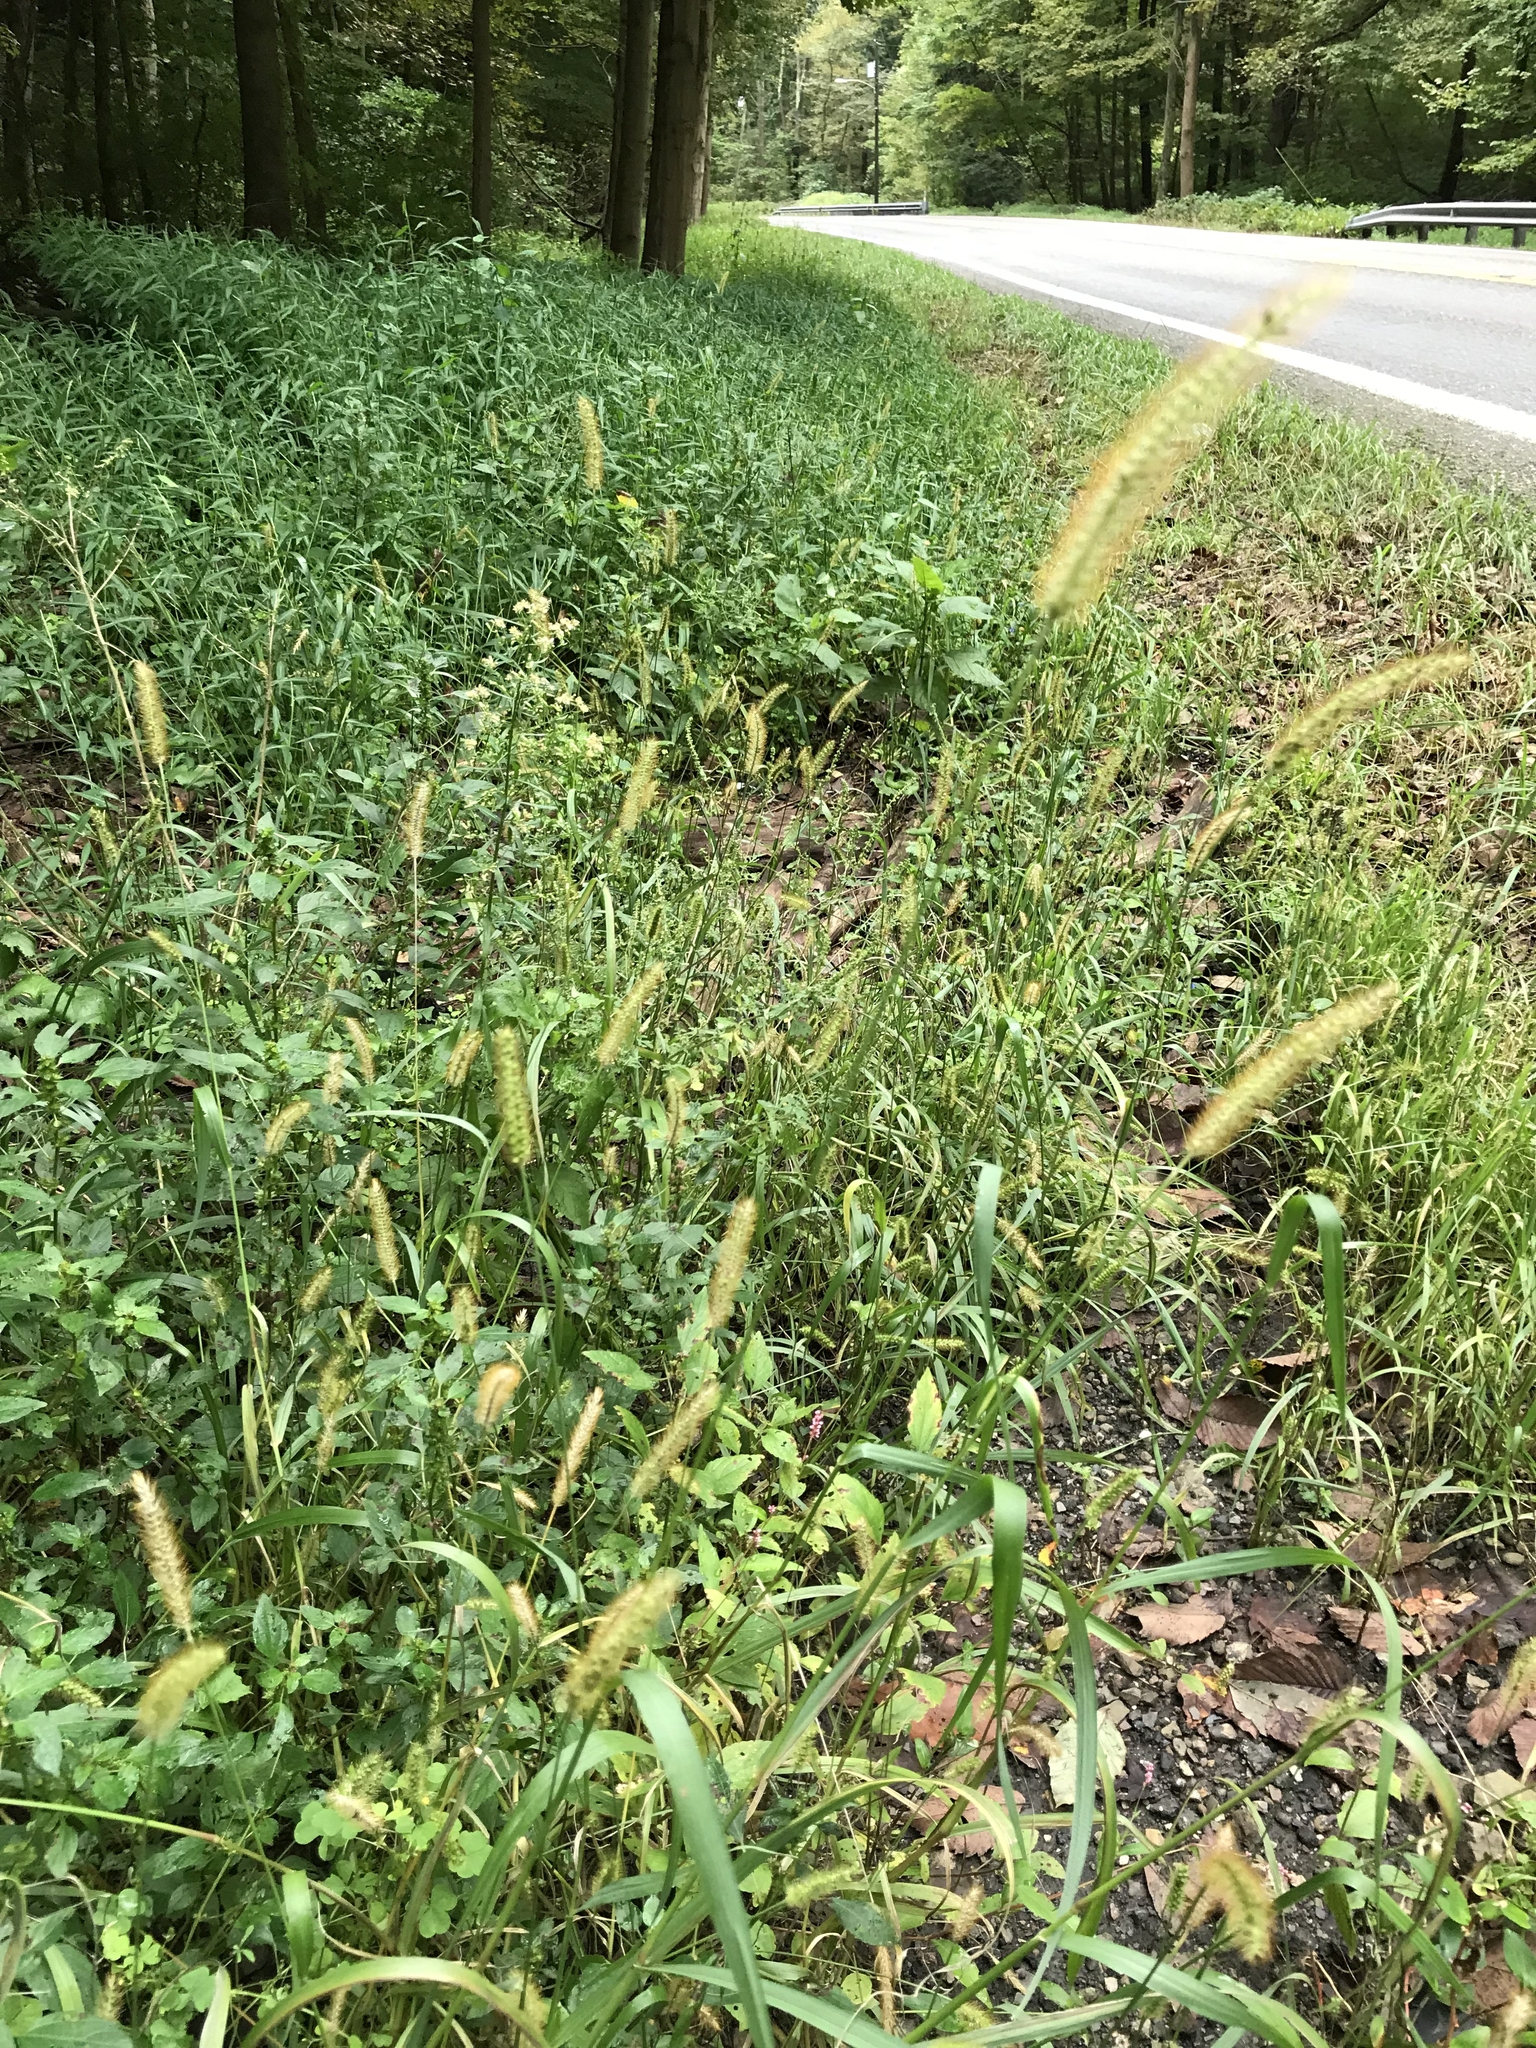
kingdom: Plantae
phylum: Tracheophyta
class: Liliopsida
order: Poales
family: Poaceae
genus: Setaria
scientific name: Setaria pumila
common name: Yellow bristle-grass
